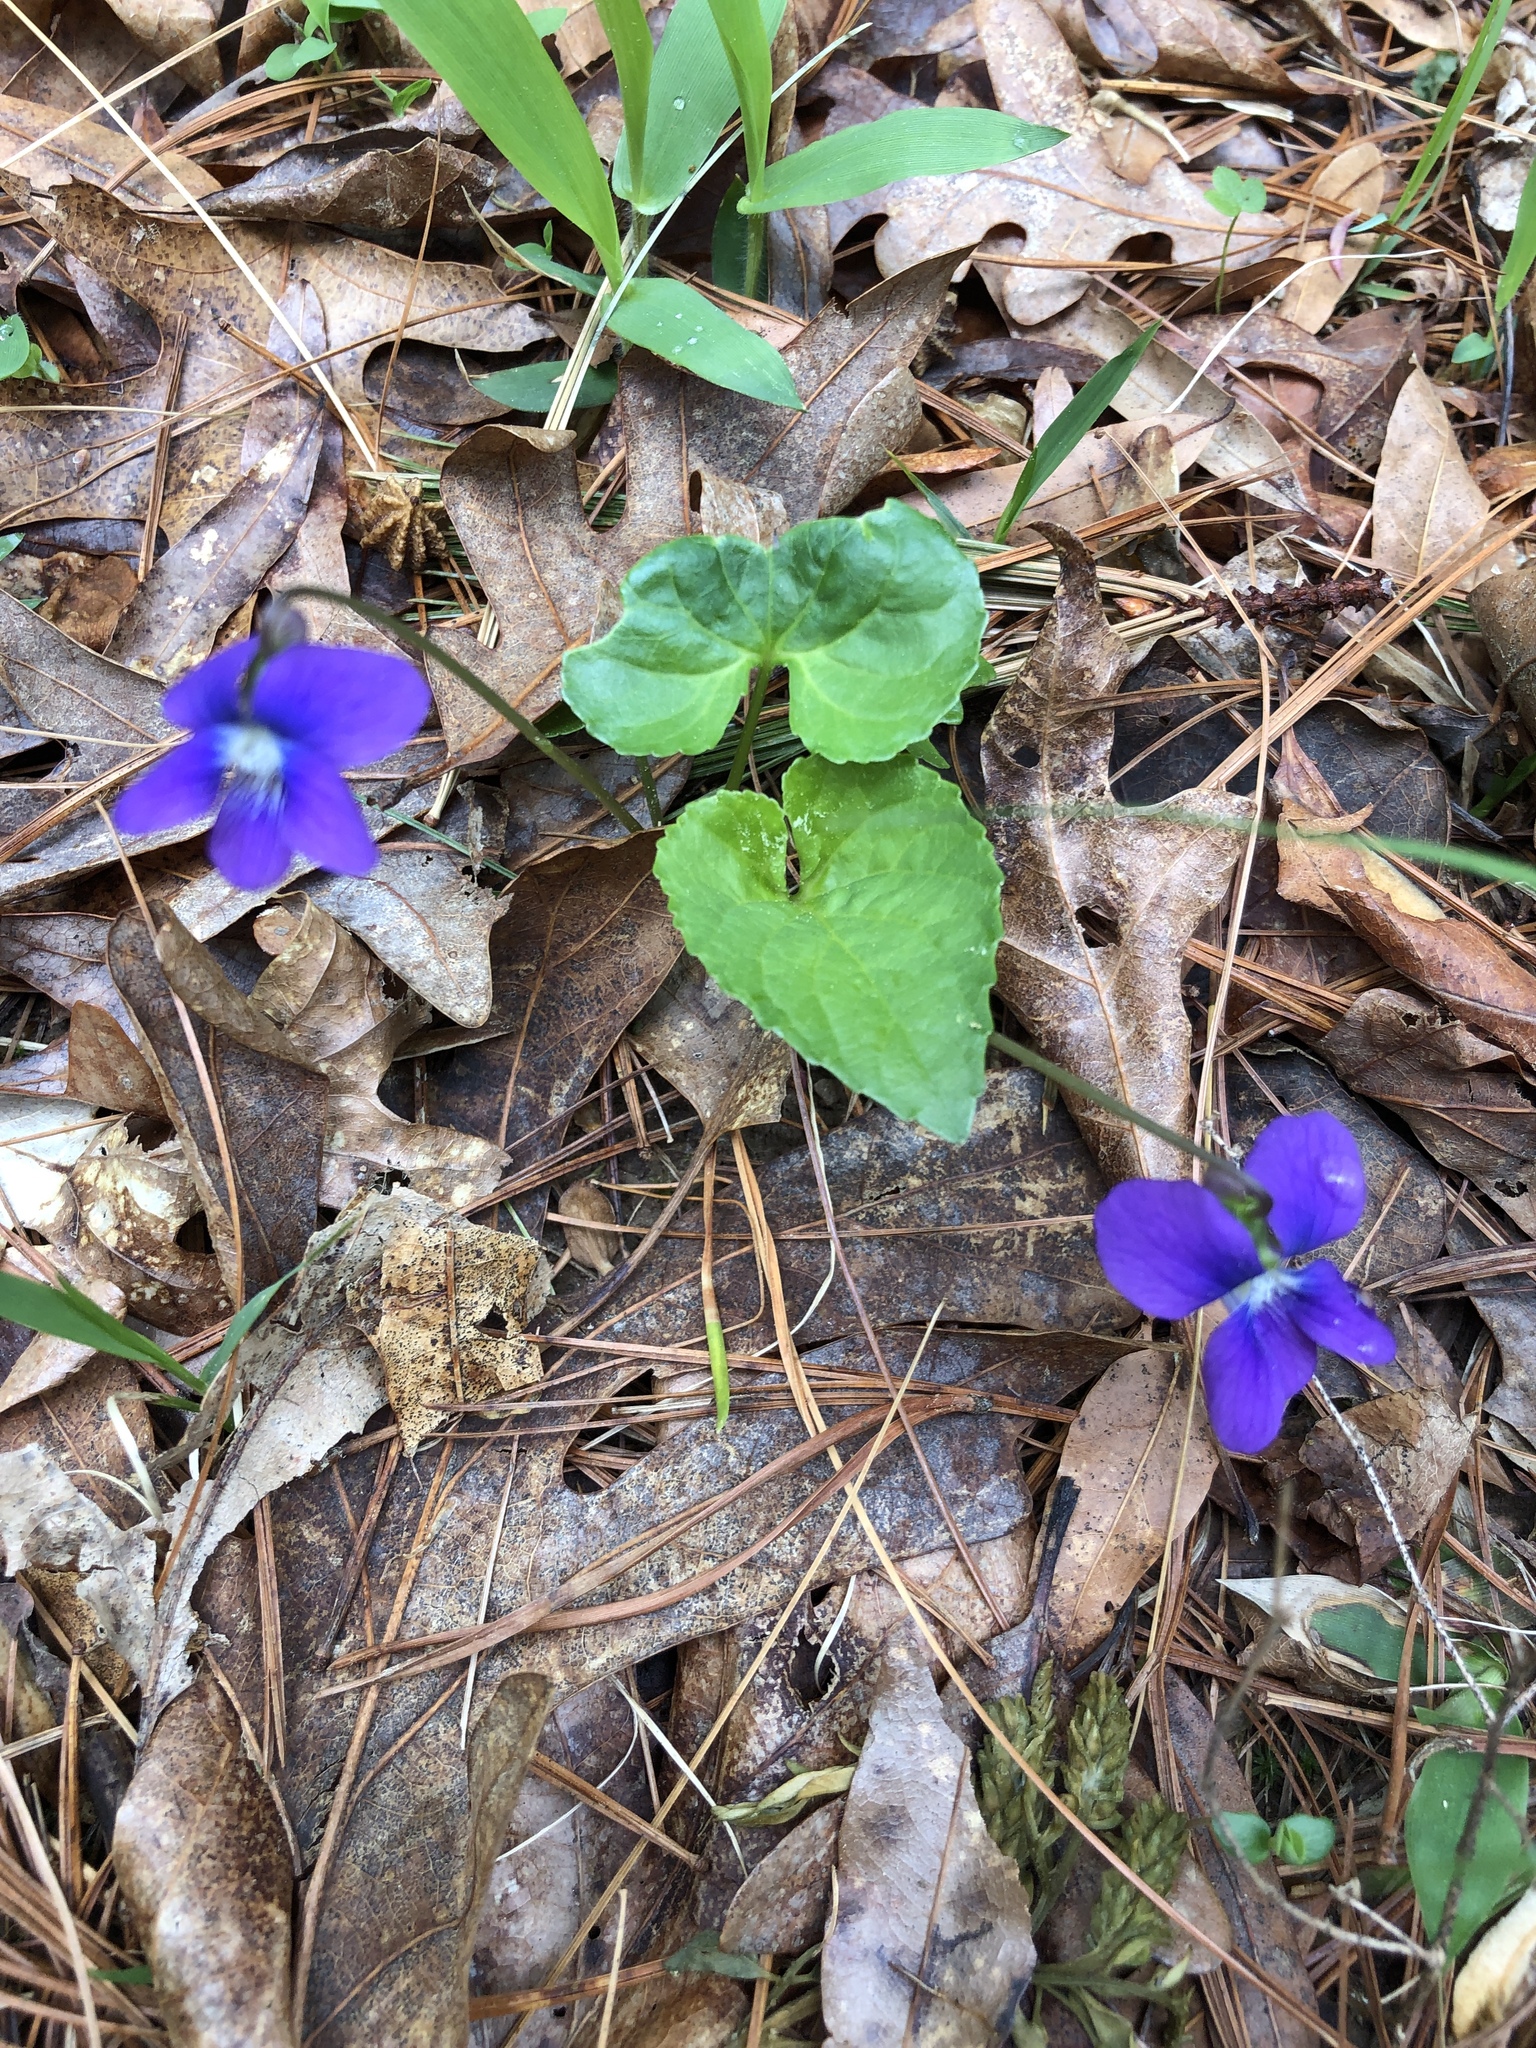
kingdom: Plantae
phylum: Tracheophyta
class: Magnoliopsida
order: Malpighiales
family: Violaceae
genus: Viola
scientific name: Viola sororia
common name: Dooryard violet
